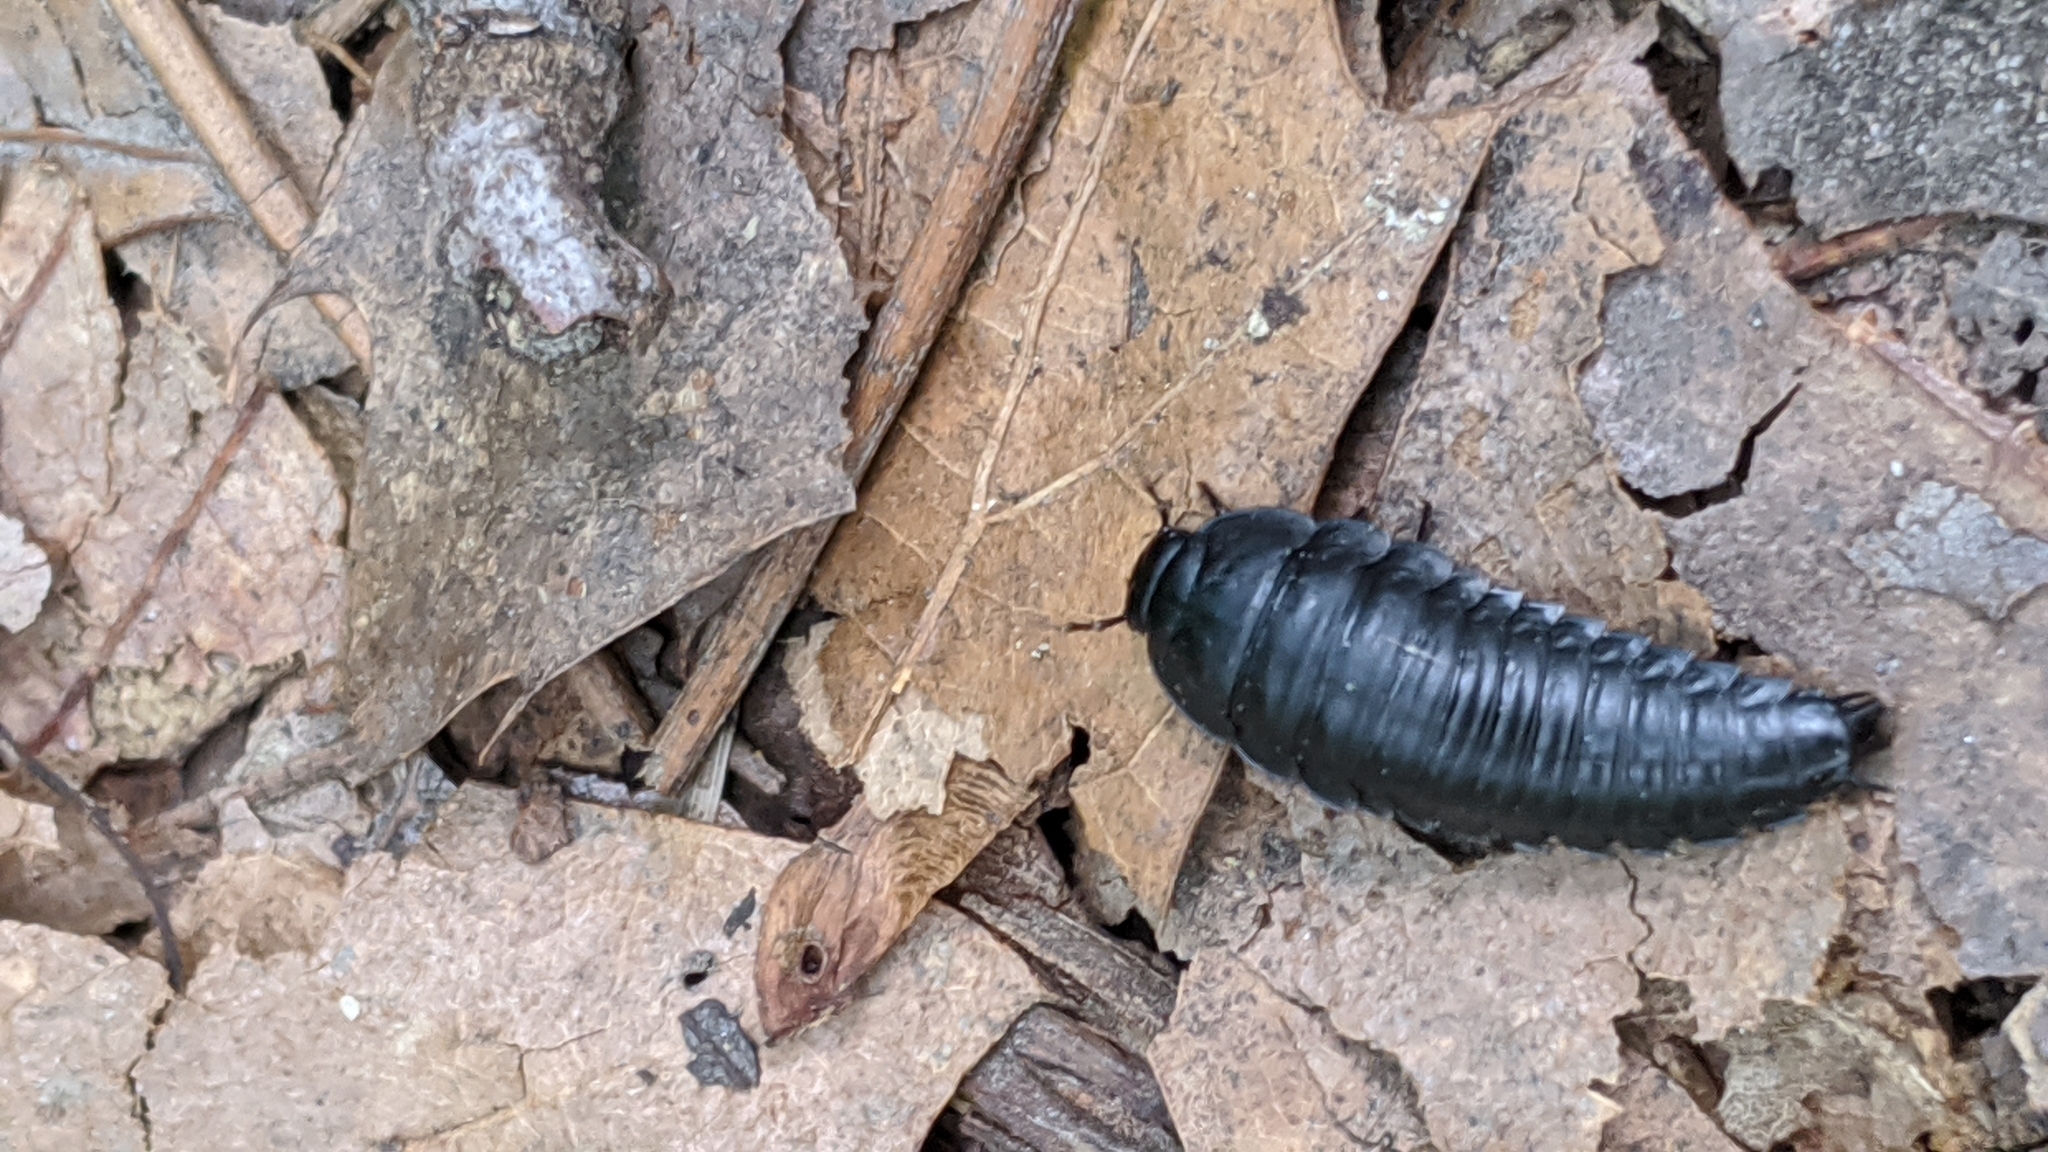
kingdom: Animalia
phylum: Arthropoda
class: Insecta
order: Coleoptera
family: Staphylinidae
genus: Necrophila
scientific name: Necrophila americana
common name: American carrion beetle
